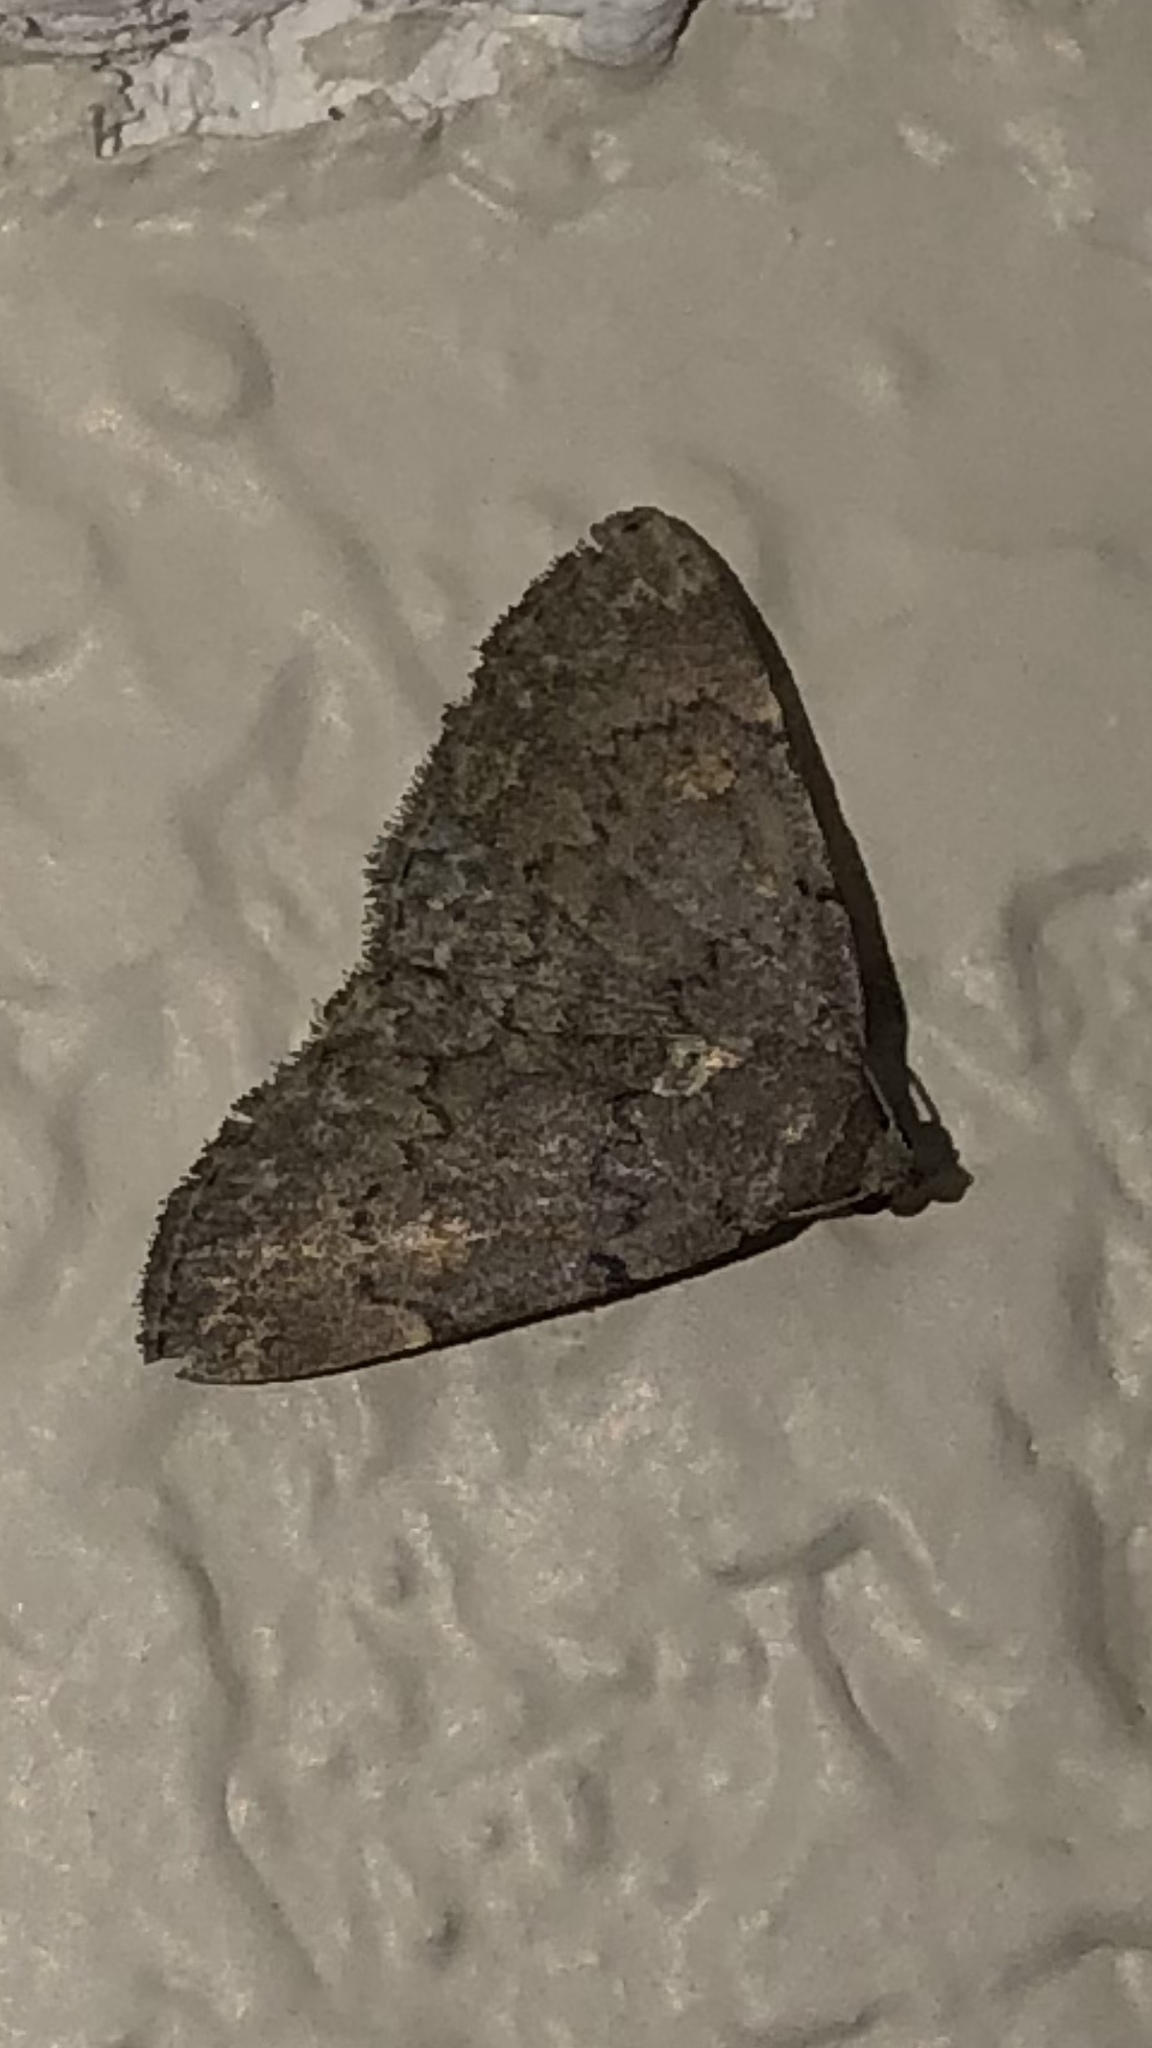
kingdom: Animalia
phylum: Arthropoda
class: Insecta
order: Lepidoptera
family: Erebidae
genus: Idia
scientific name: Idia aemula
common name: Common idia moth
